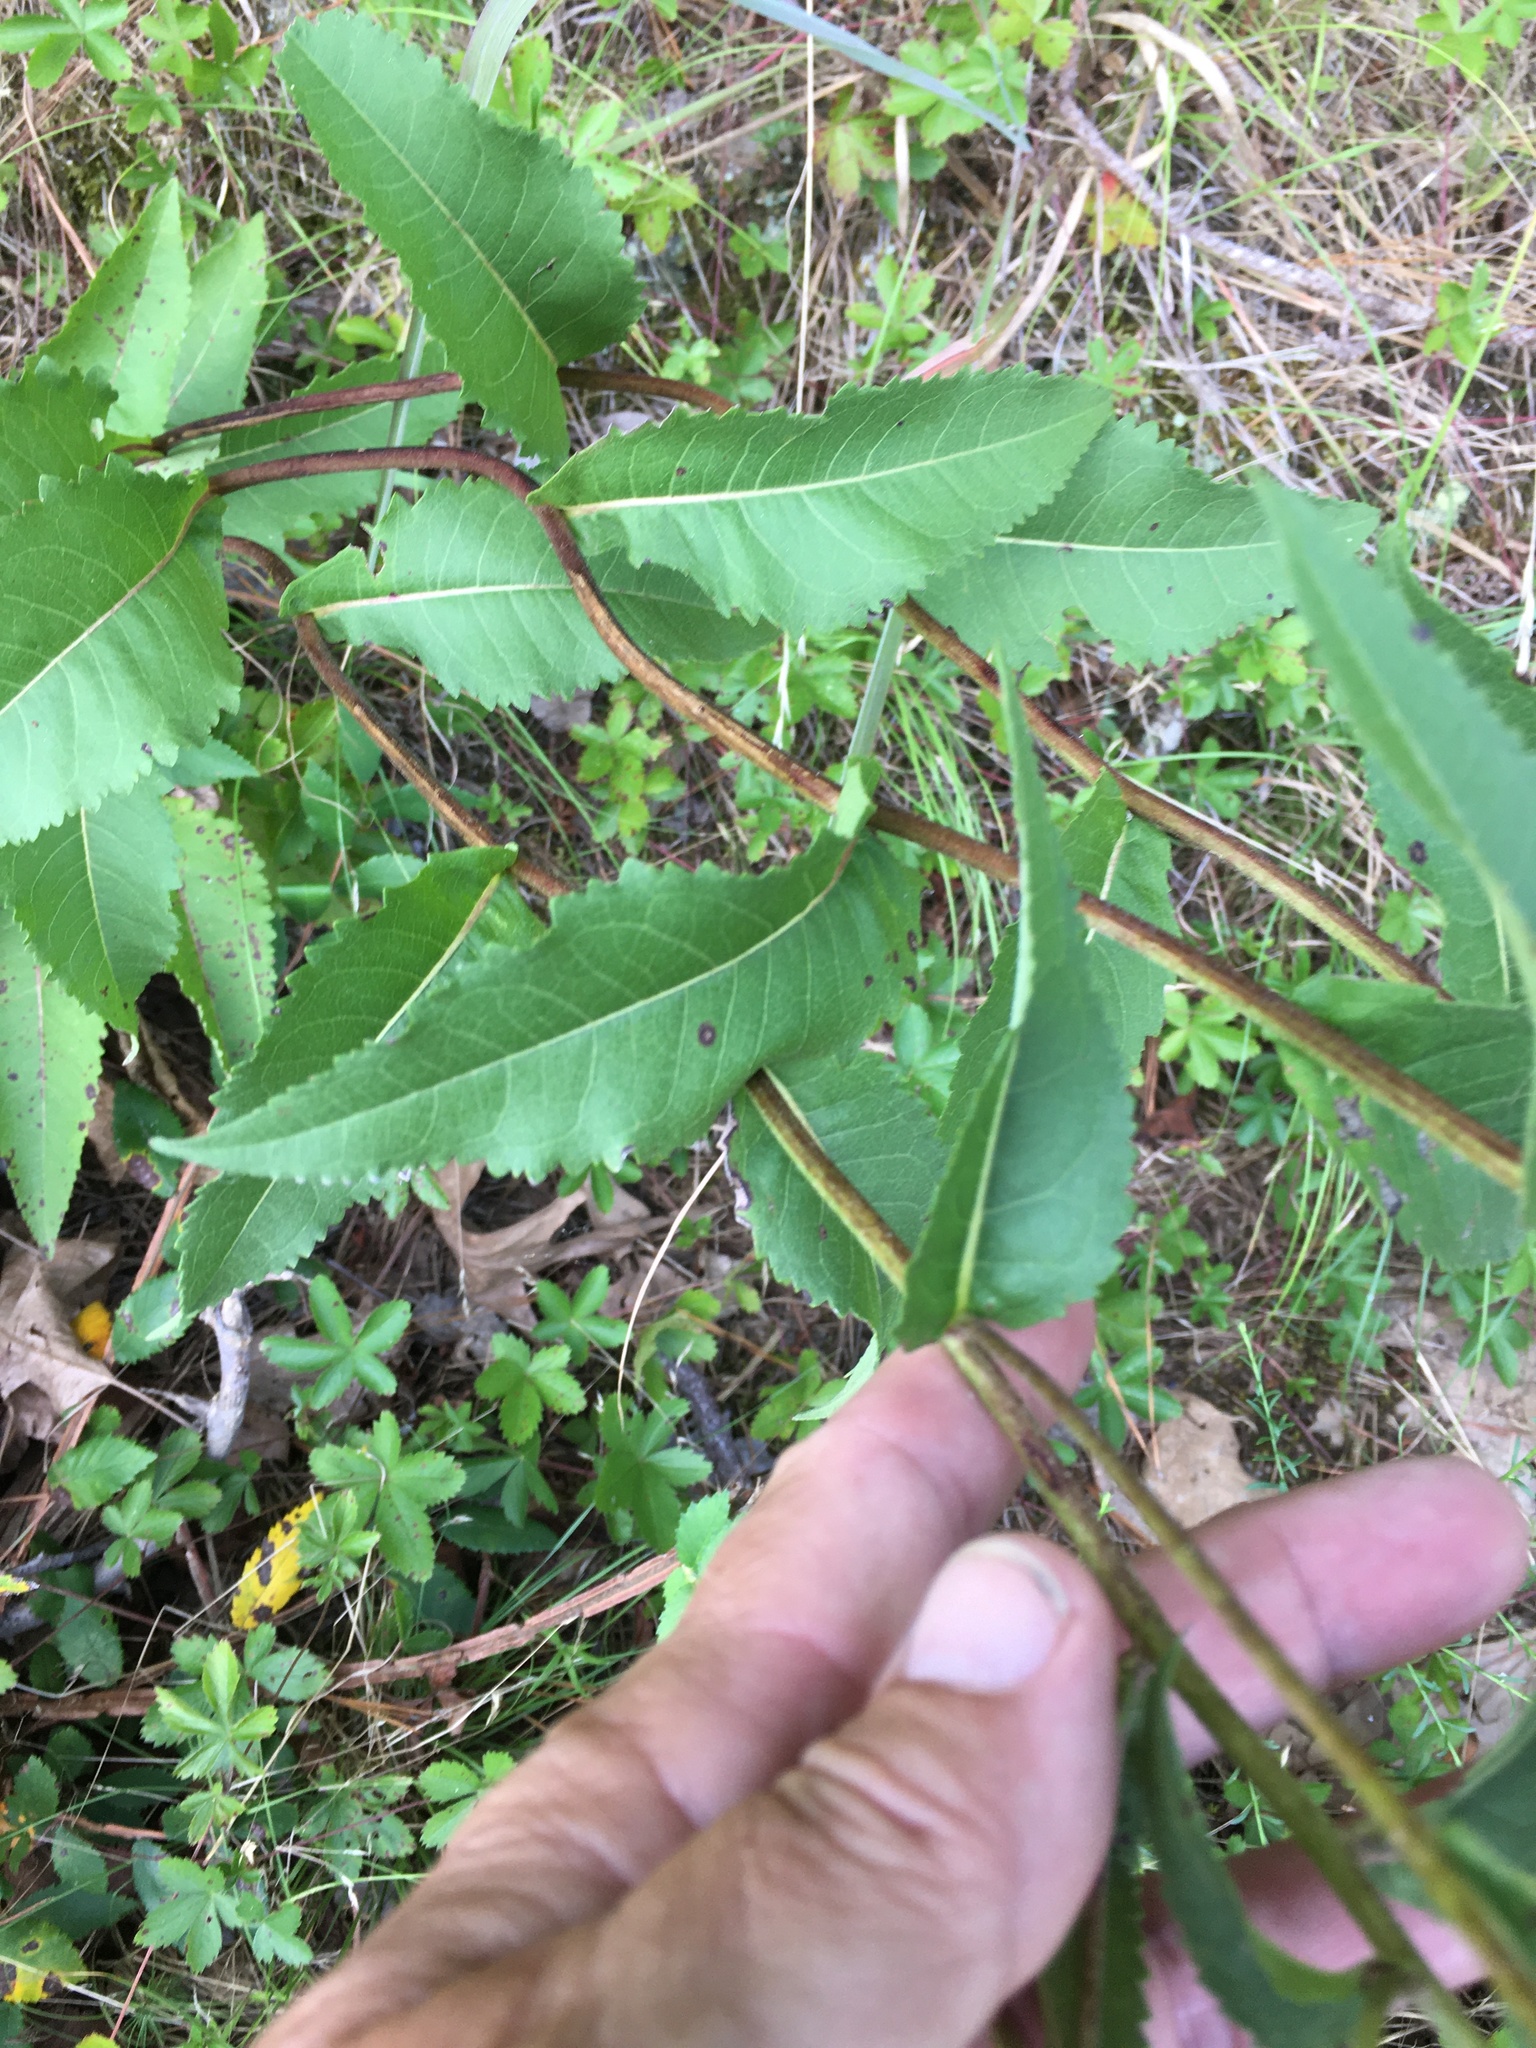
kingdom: Plantae
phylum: Tracheophyta
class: Magnoliopsida
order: Asterales
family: Asteraceae
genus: Parthenium
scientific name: Parthenium integrifolium
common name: American feverfew
